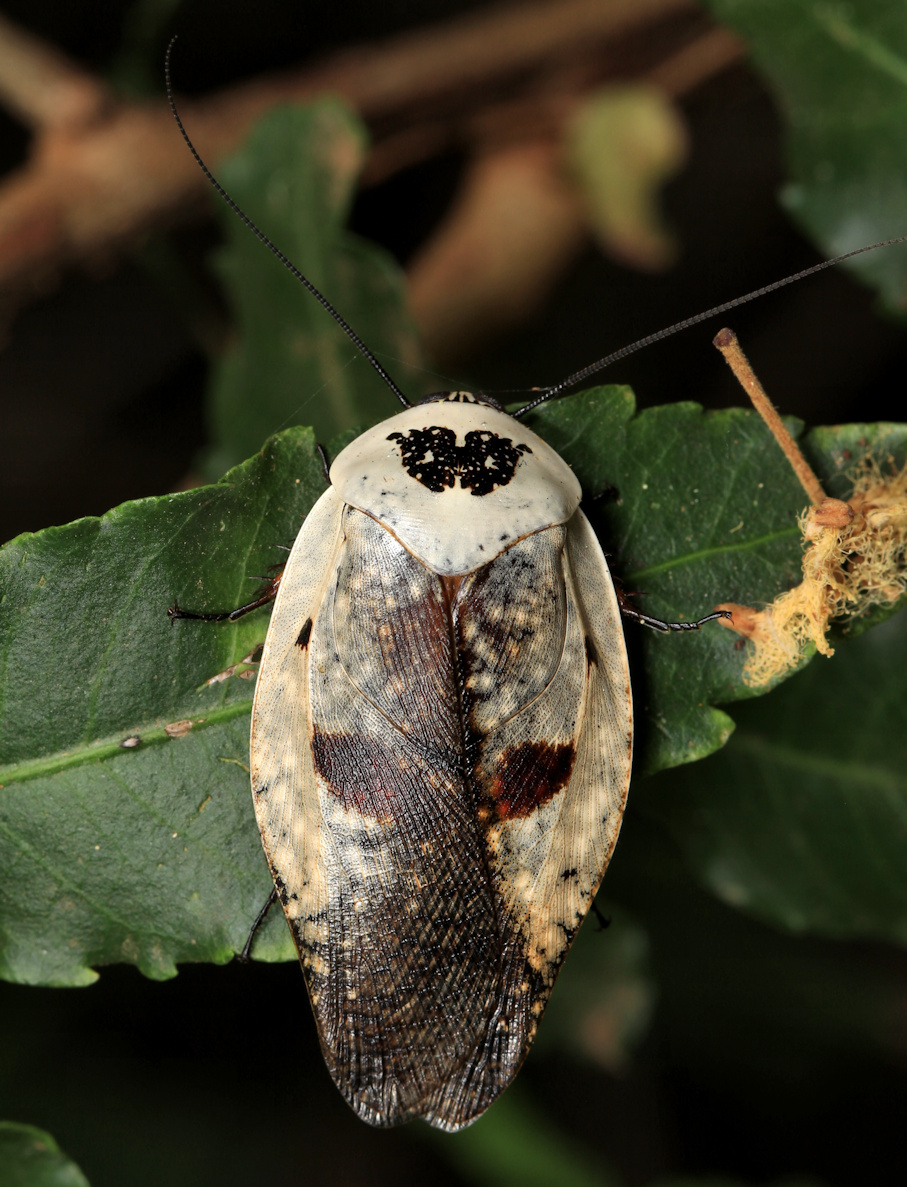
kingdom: Animalia
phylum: Arthropoda
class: Insecta
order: Blattodea
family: Blaberidae
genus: Gyna
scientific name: Gyna caffrorum
